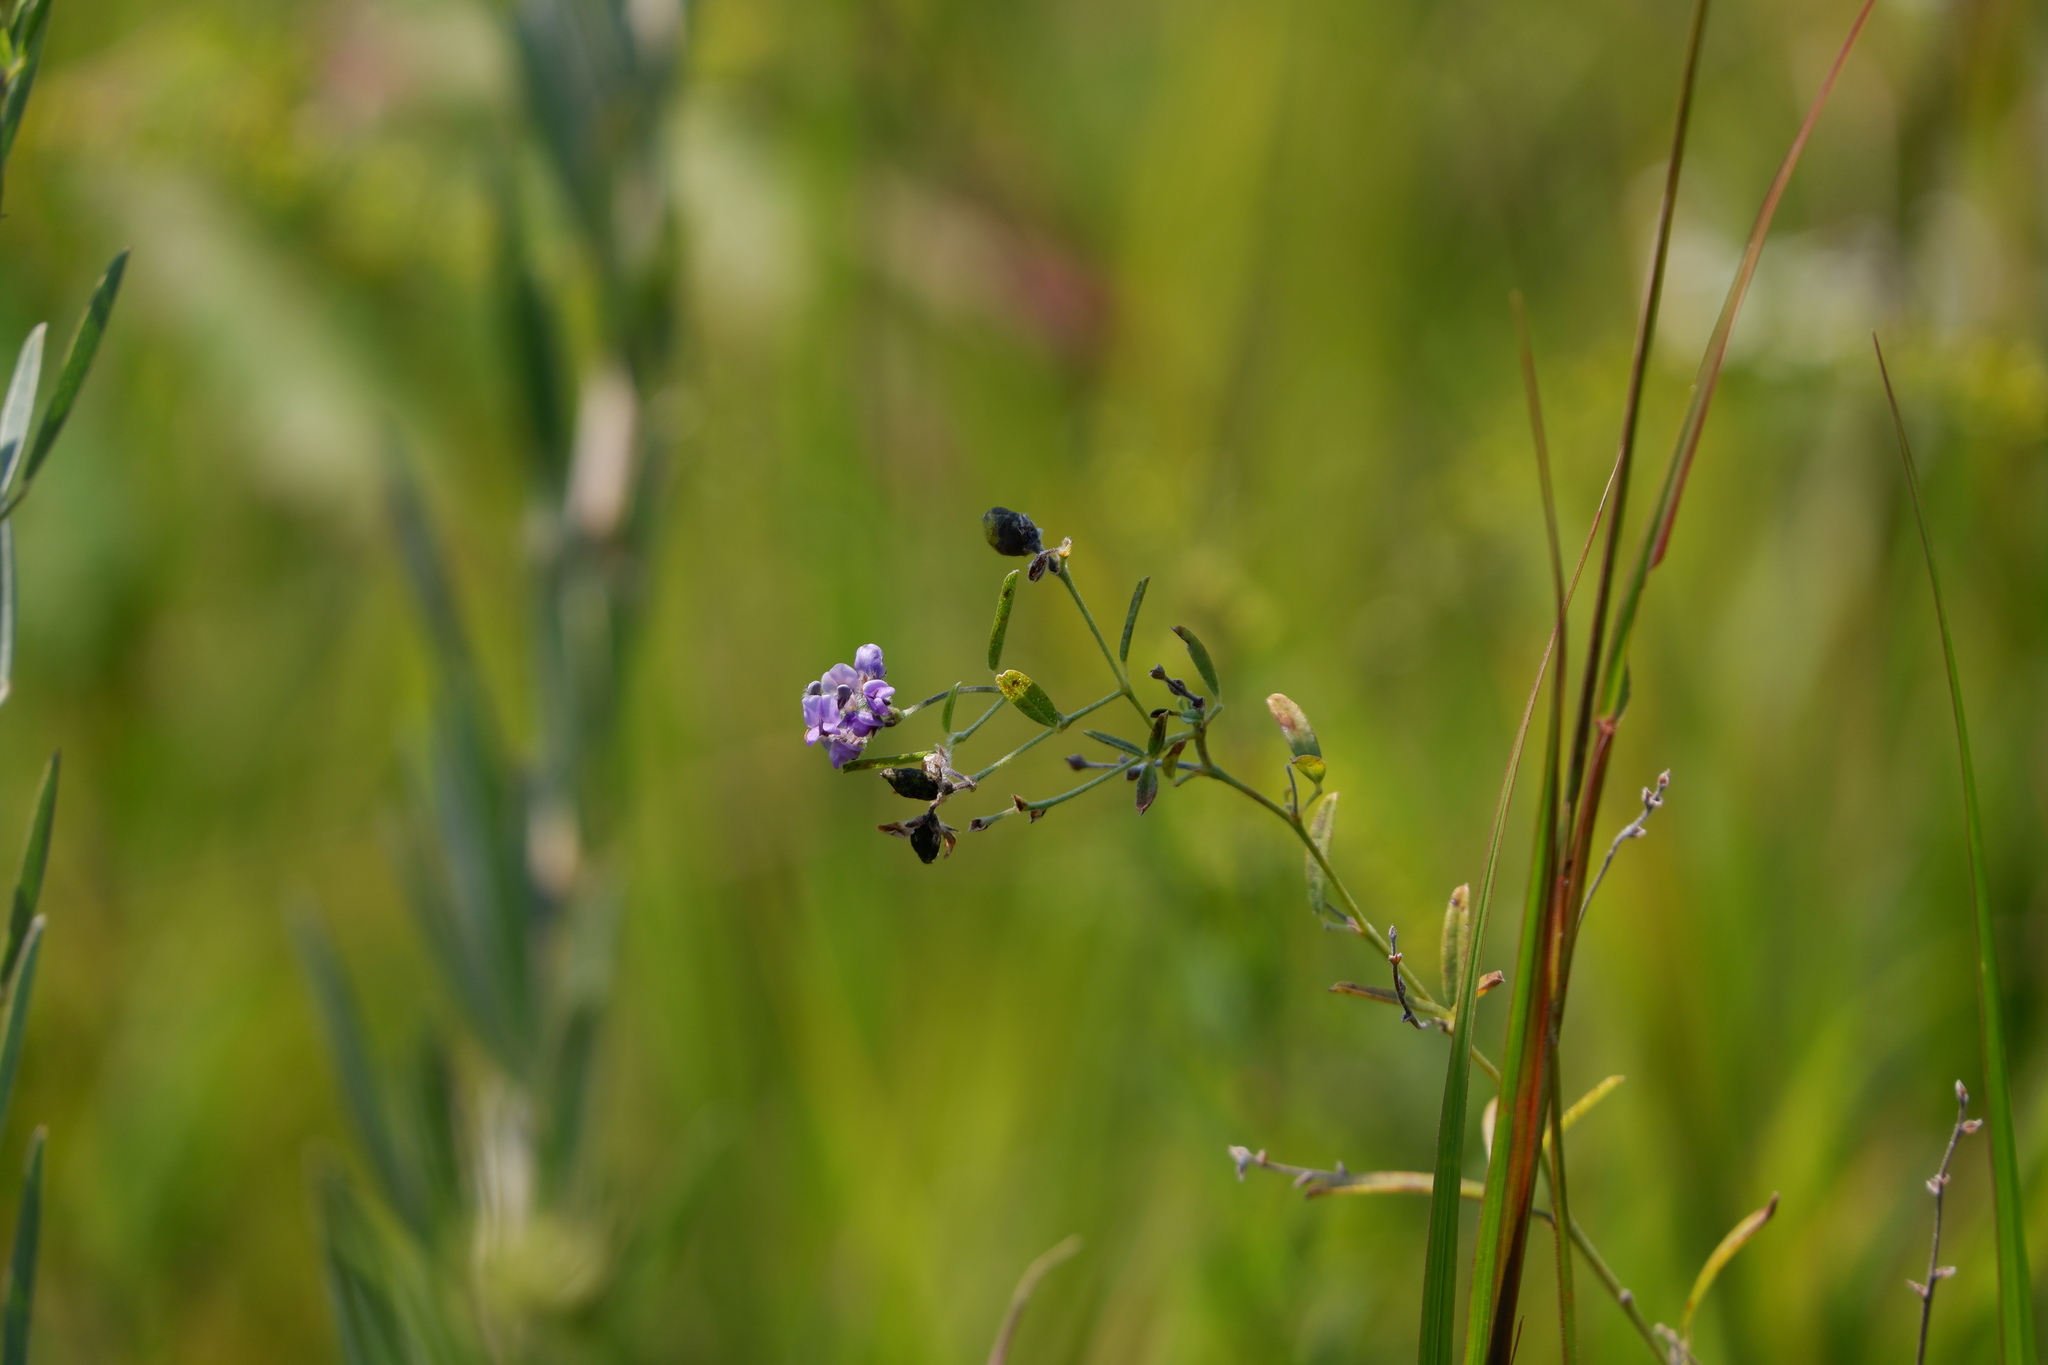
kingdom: Plantae
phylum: Tracheophyta
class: Magnoliopsida
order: Fabales
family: Fabaceae
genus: Pediomelum
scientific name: Pediomelum tenuiflorum
